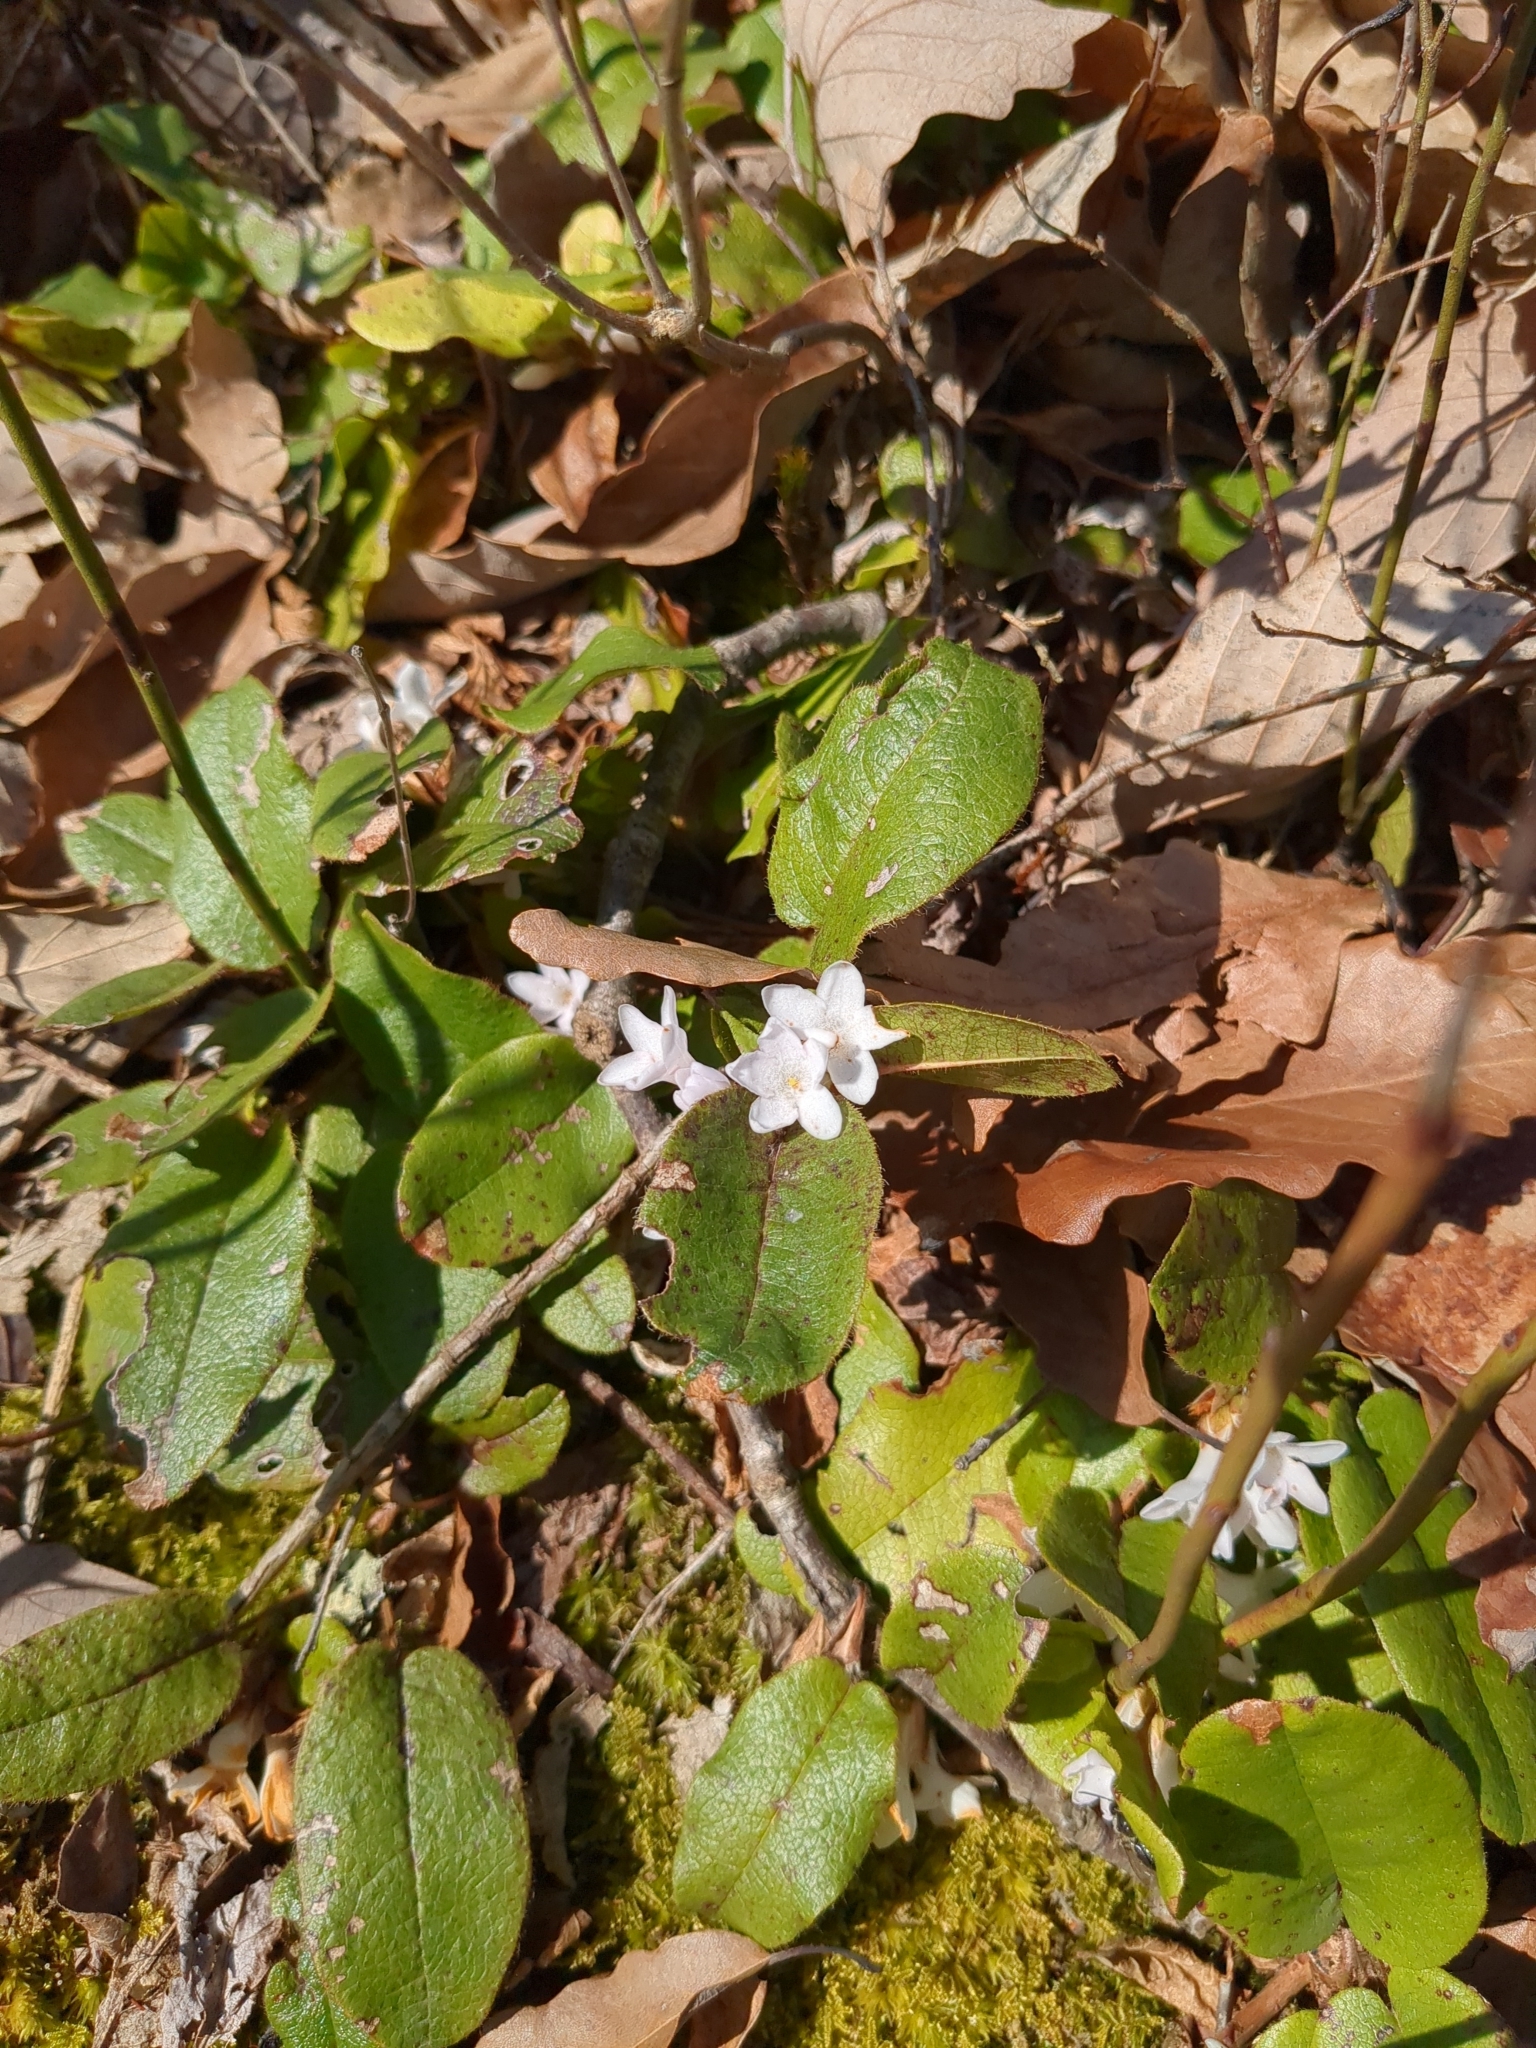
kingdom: Plantae
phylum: Tracheophyta
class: Magnoliopsida
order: Ericales
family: Ericaceae
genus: Epigaea
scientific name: Epigaea repens
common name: Gravelroot
